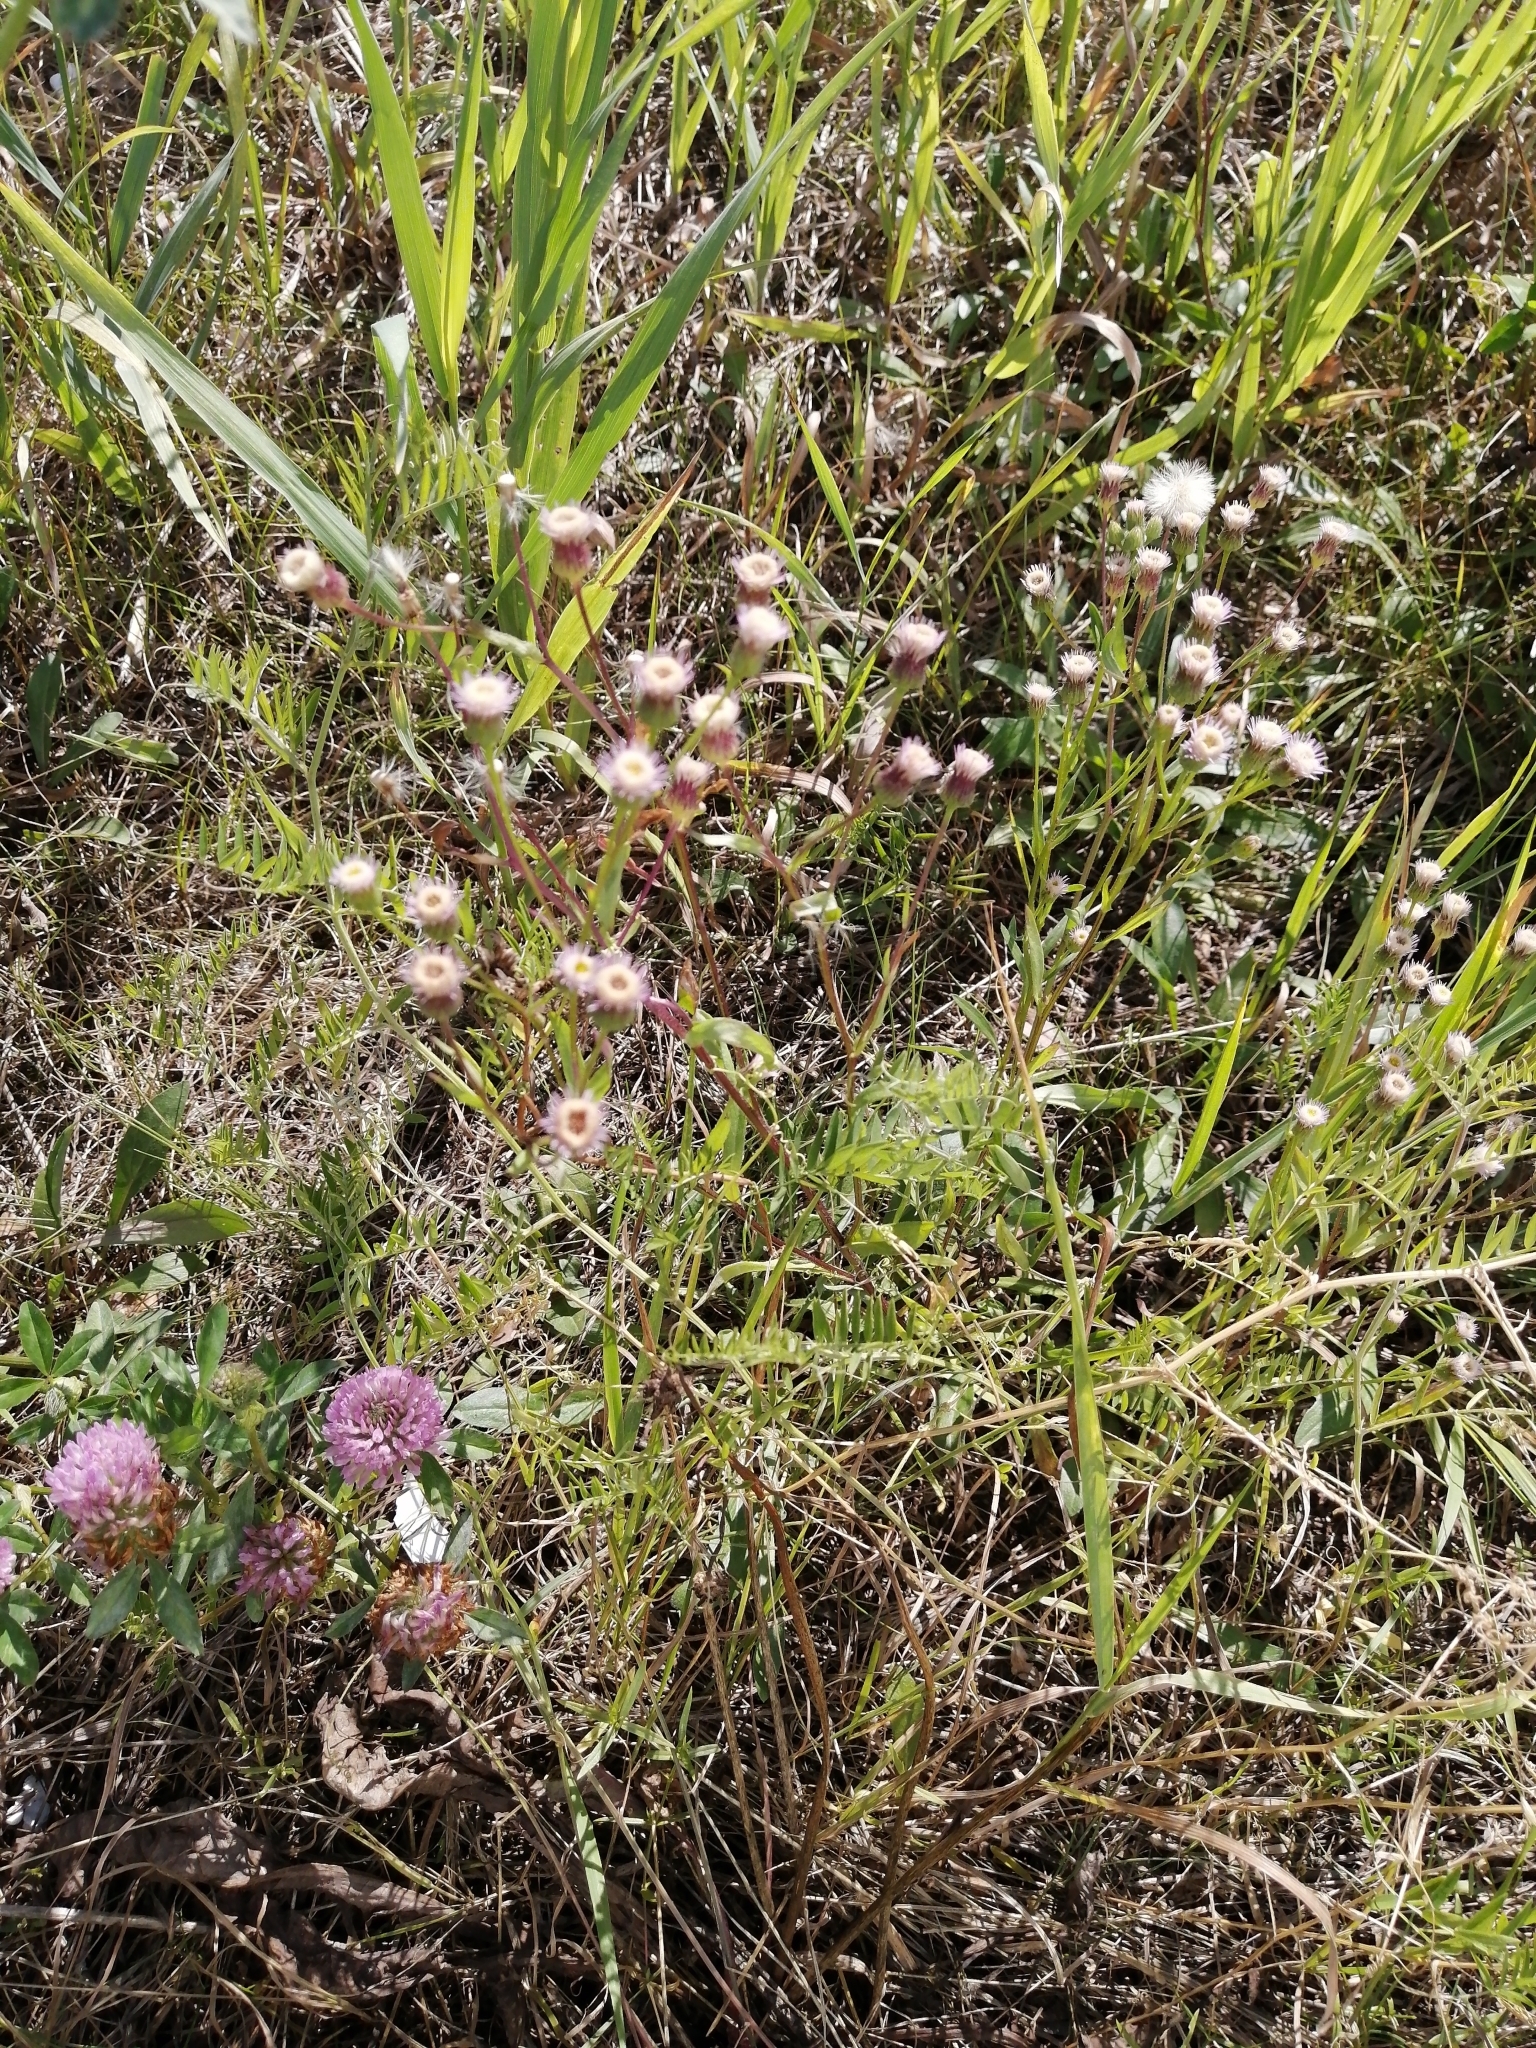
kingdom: Plantae
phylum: Tracheophyta
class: Magnoliopsida
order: Asterales
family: Asteraceae
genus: Erigeron
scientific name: Erigeron acris
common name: Blue fleabane
